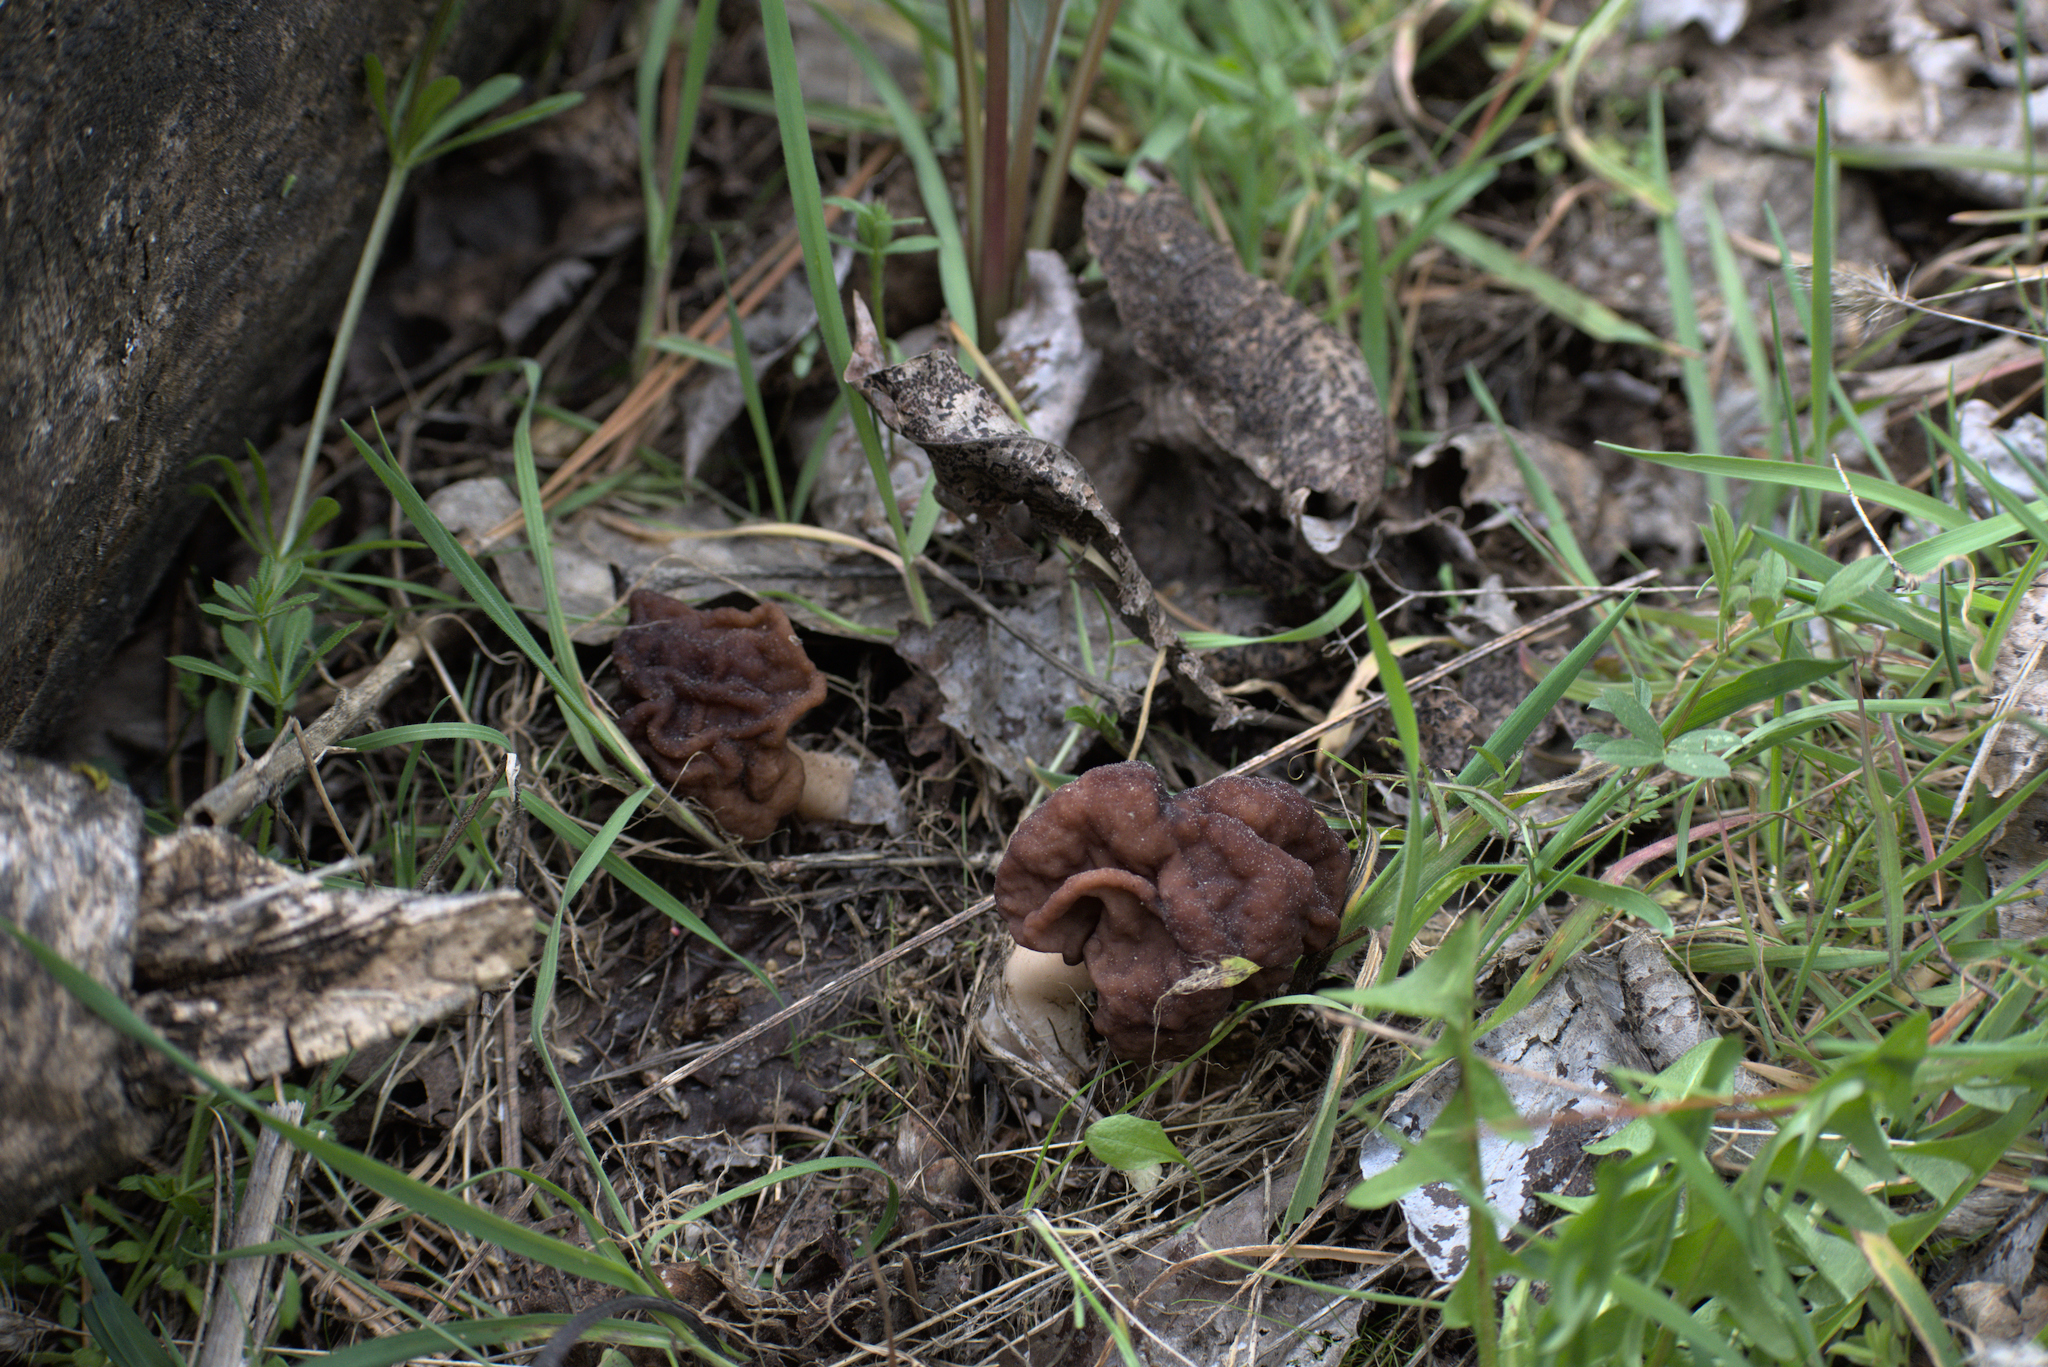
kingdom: Fungi
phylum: Ascomycota
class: Pezizomycetes
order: Pezizales
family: Discinaceae
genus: Gyromitra
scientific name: Gyromitra esculenta
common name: False morel
